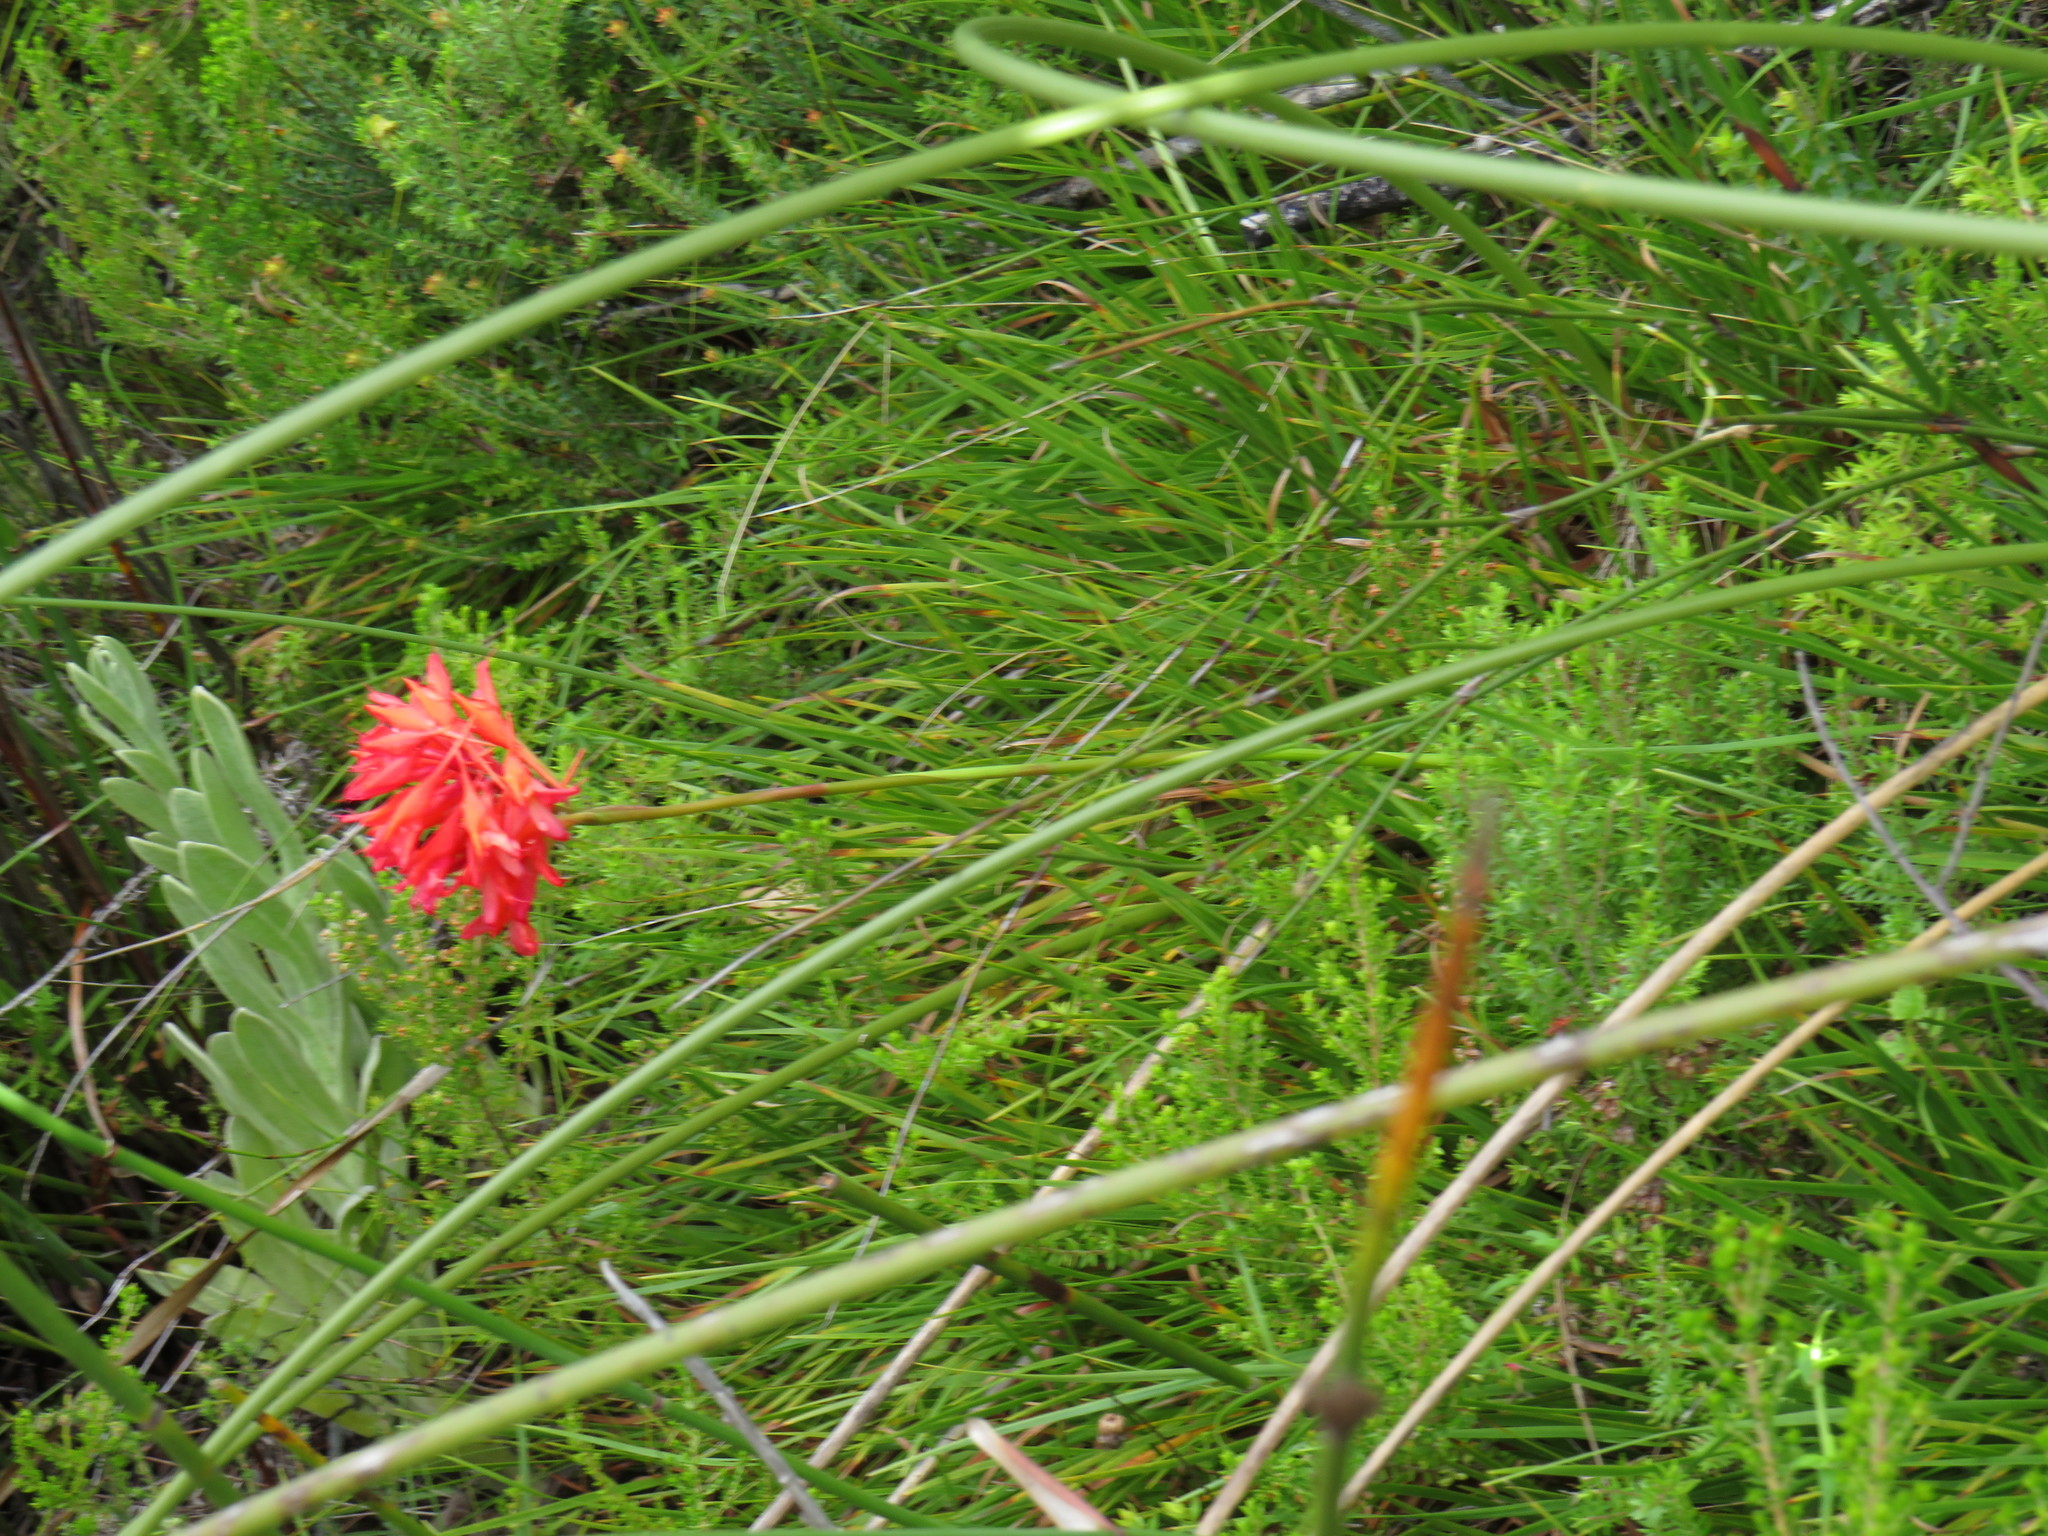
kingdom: Plantae
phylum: Tracheophyta
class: Liliopsida
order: Asparagales
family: Orchidaceae
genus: Disa
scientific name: Disa ferruginea
